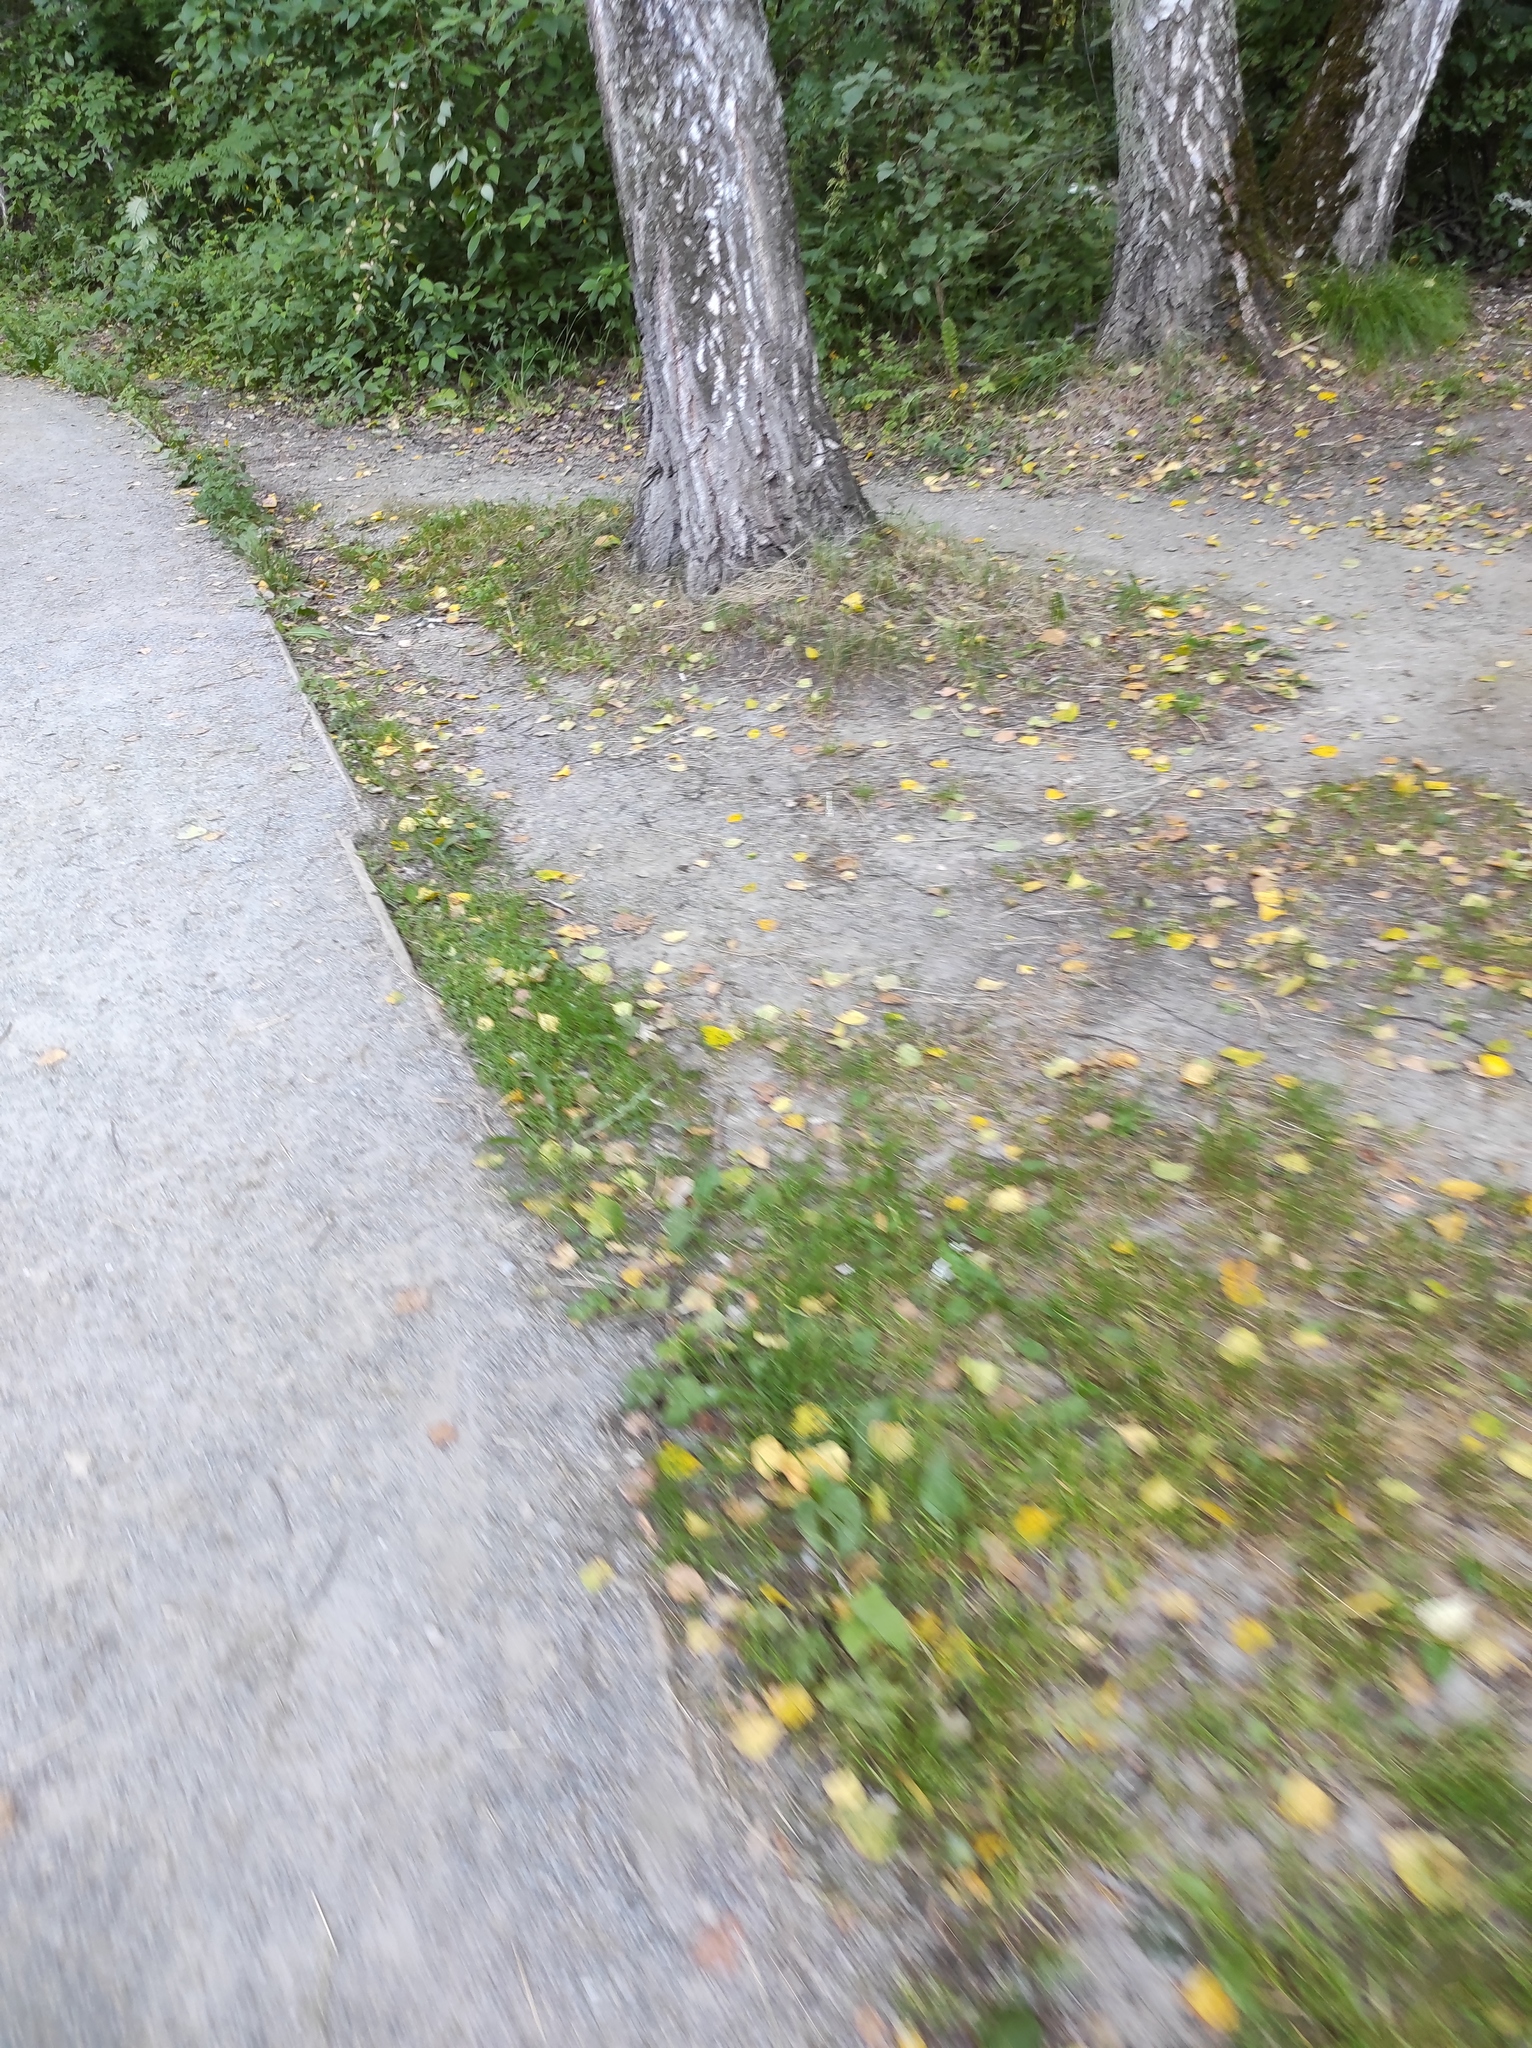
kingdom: Plantae
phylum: Tracheophyta
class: Magnoliopsida
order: Fagales
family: Betulaceae
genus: Betula
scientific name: Betula pendula
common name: Silver birch
